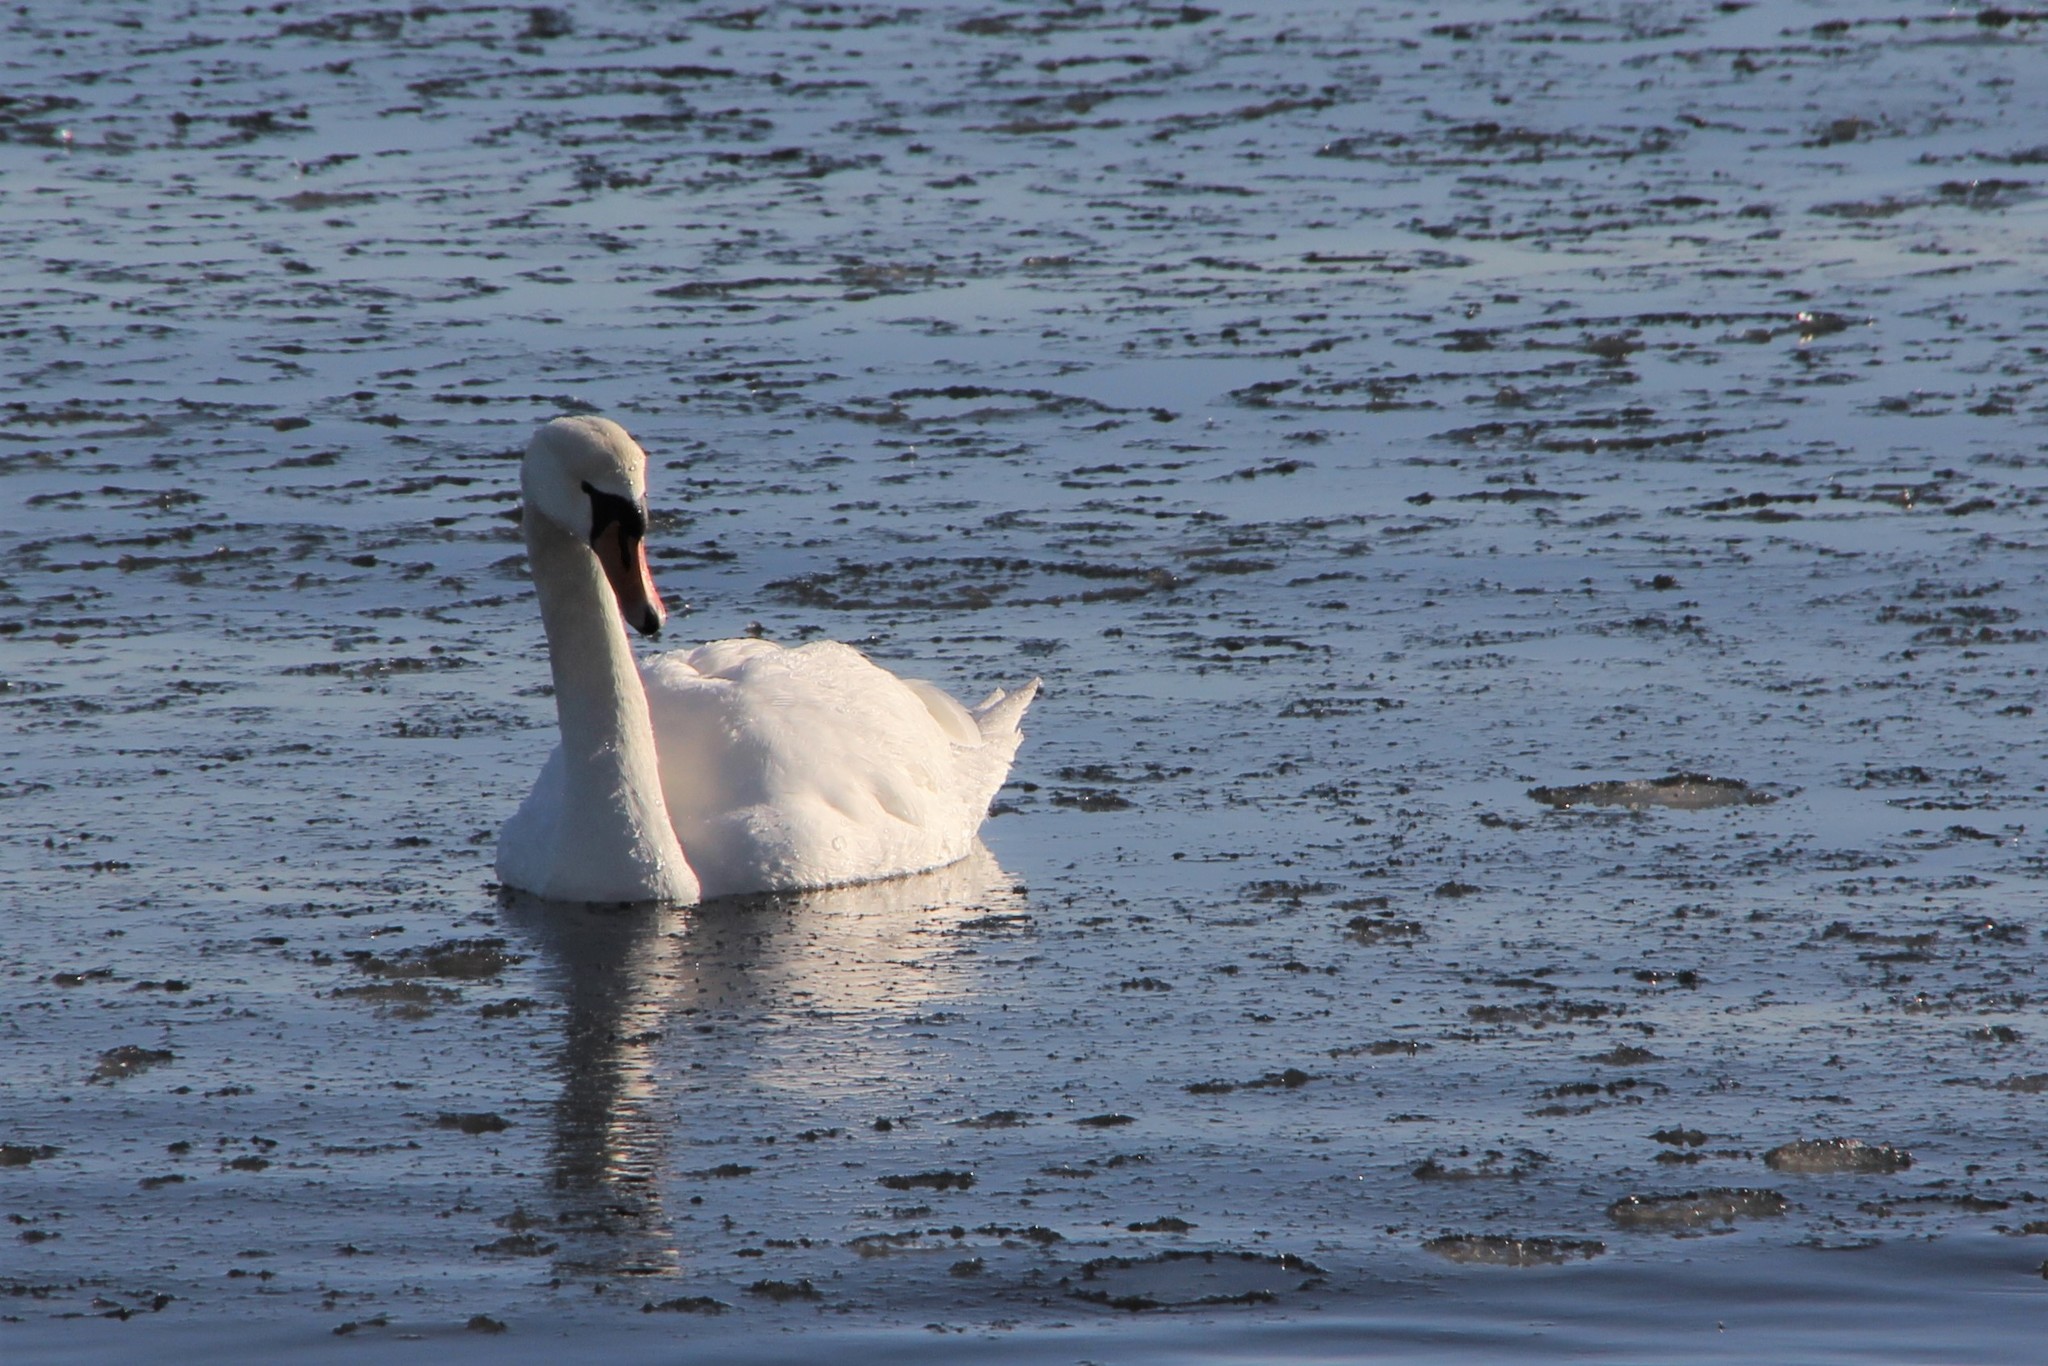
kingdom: Animalia
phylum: Chordata
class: Aves
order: Anseriformes
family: Anatidae
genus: Cygnus
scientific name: Cygnus olor
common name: Mute swan
